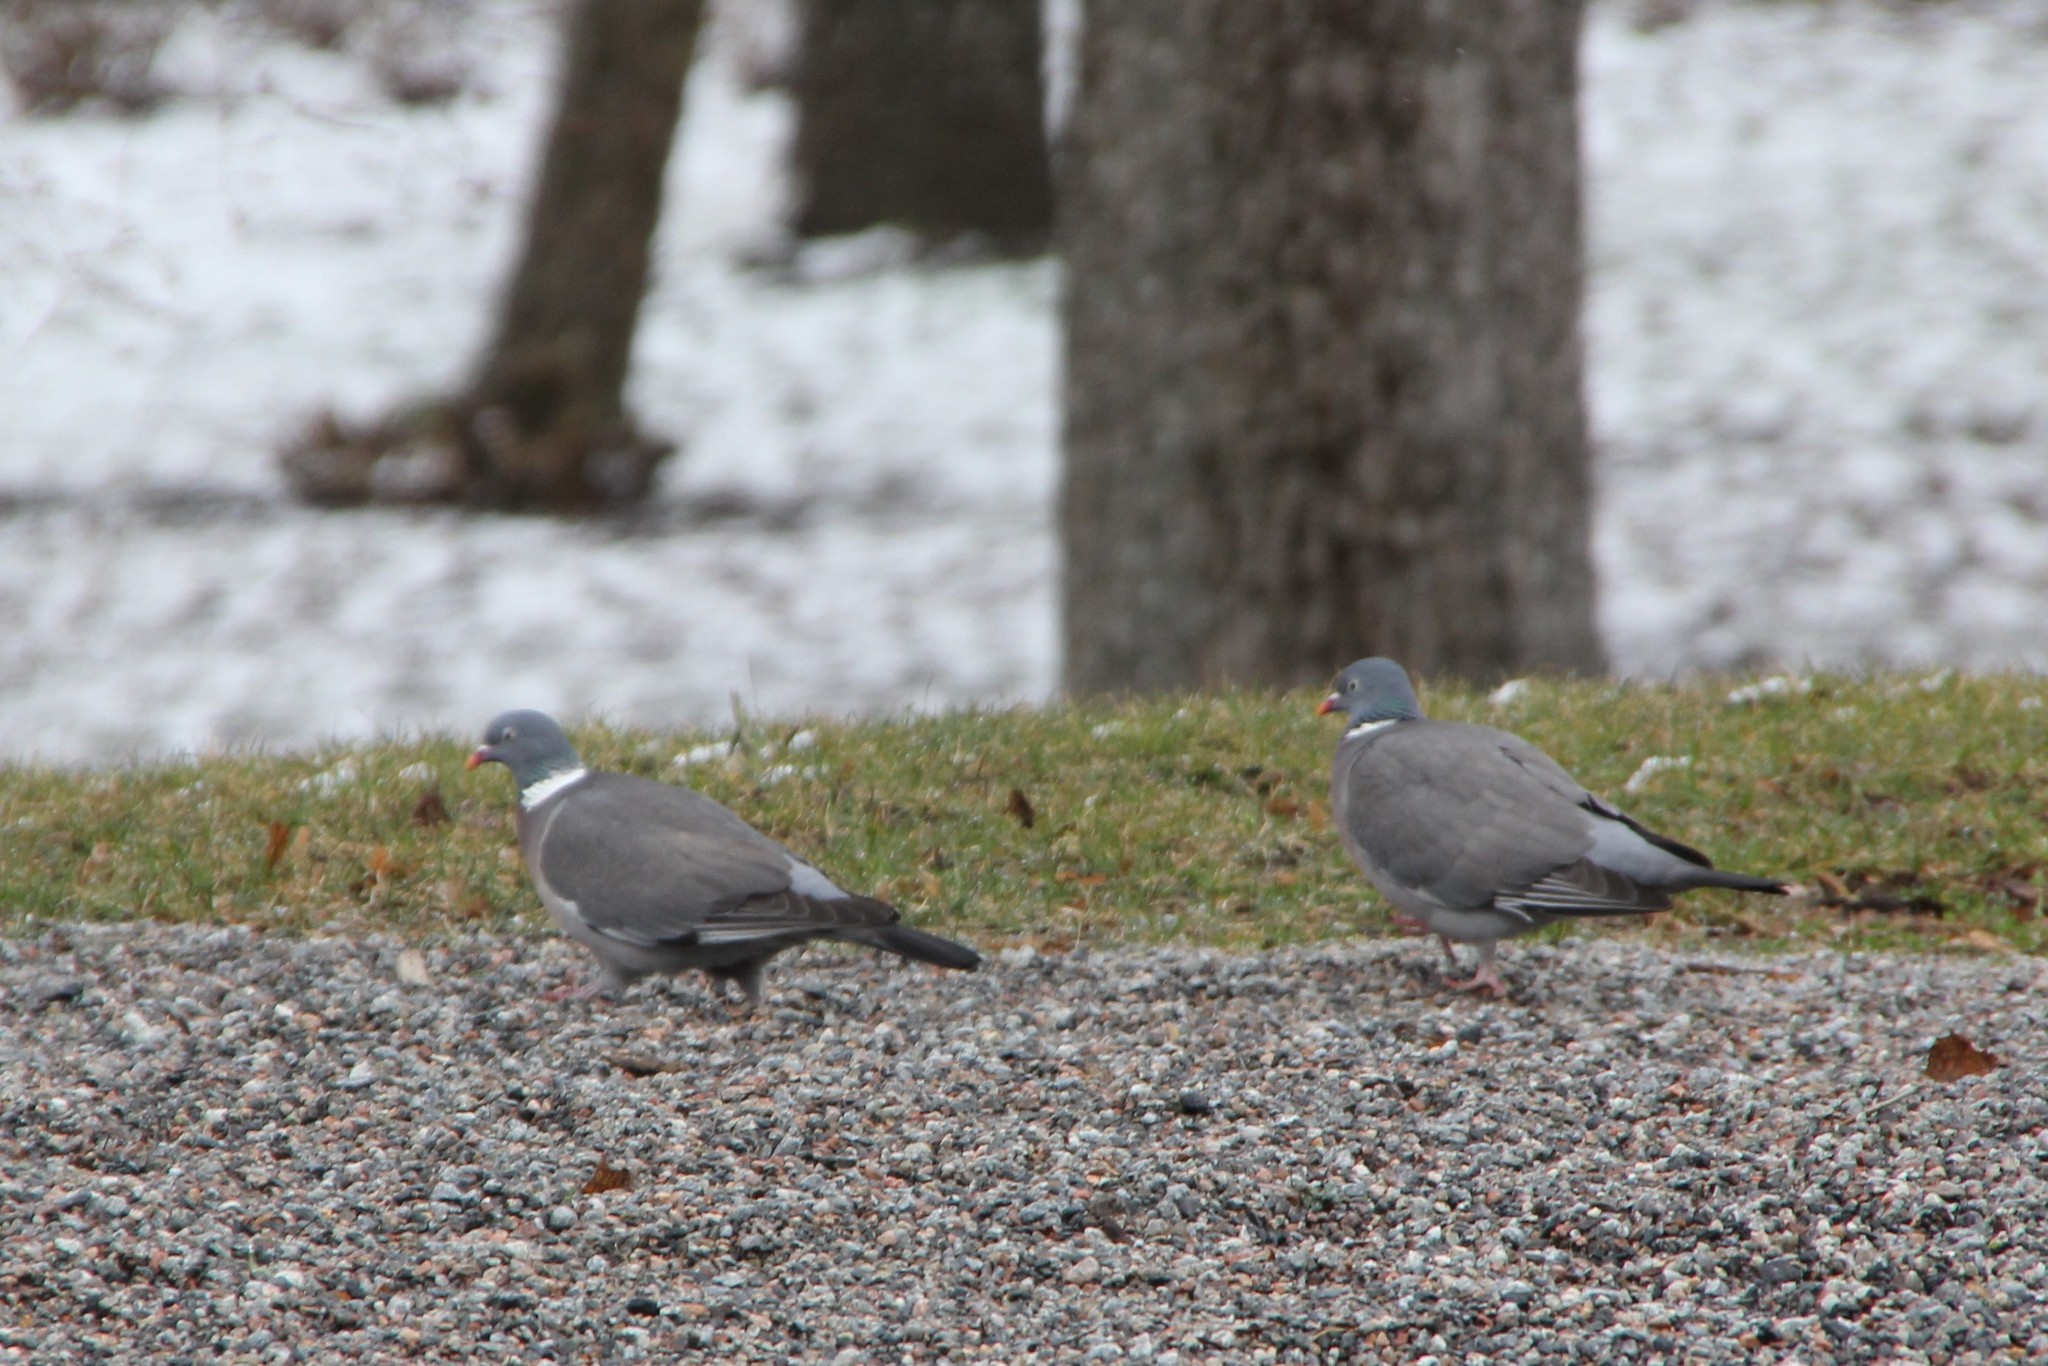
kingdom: Animalia
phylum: Chordata
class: Aves
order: Columbiformes
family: Columbidae
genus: Columba
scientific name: Columba palumbus
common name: Common wood pigeon
